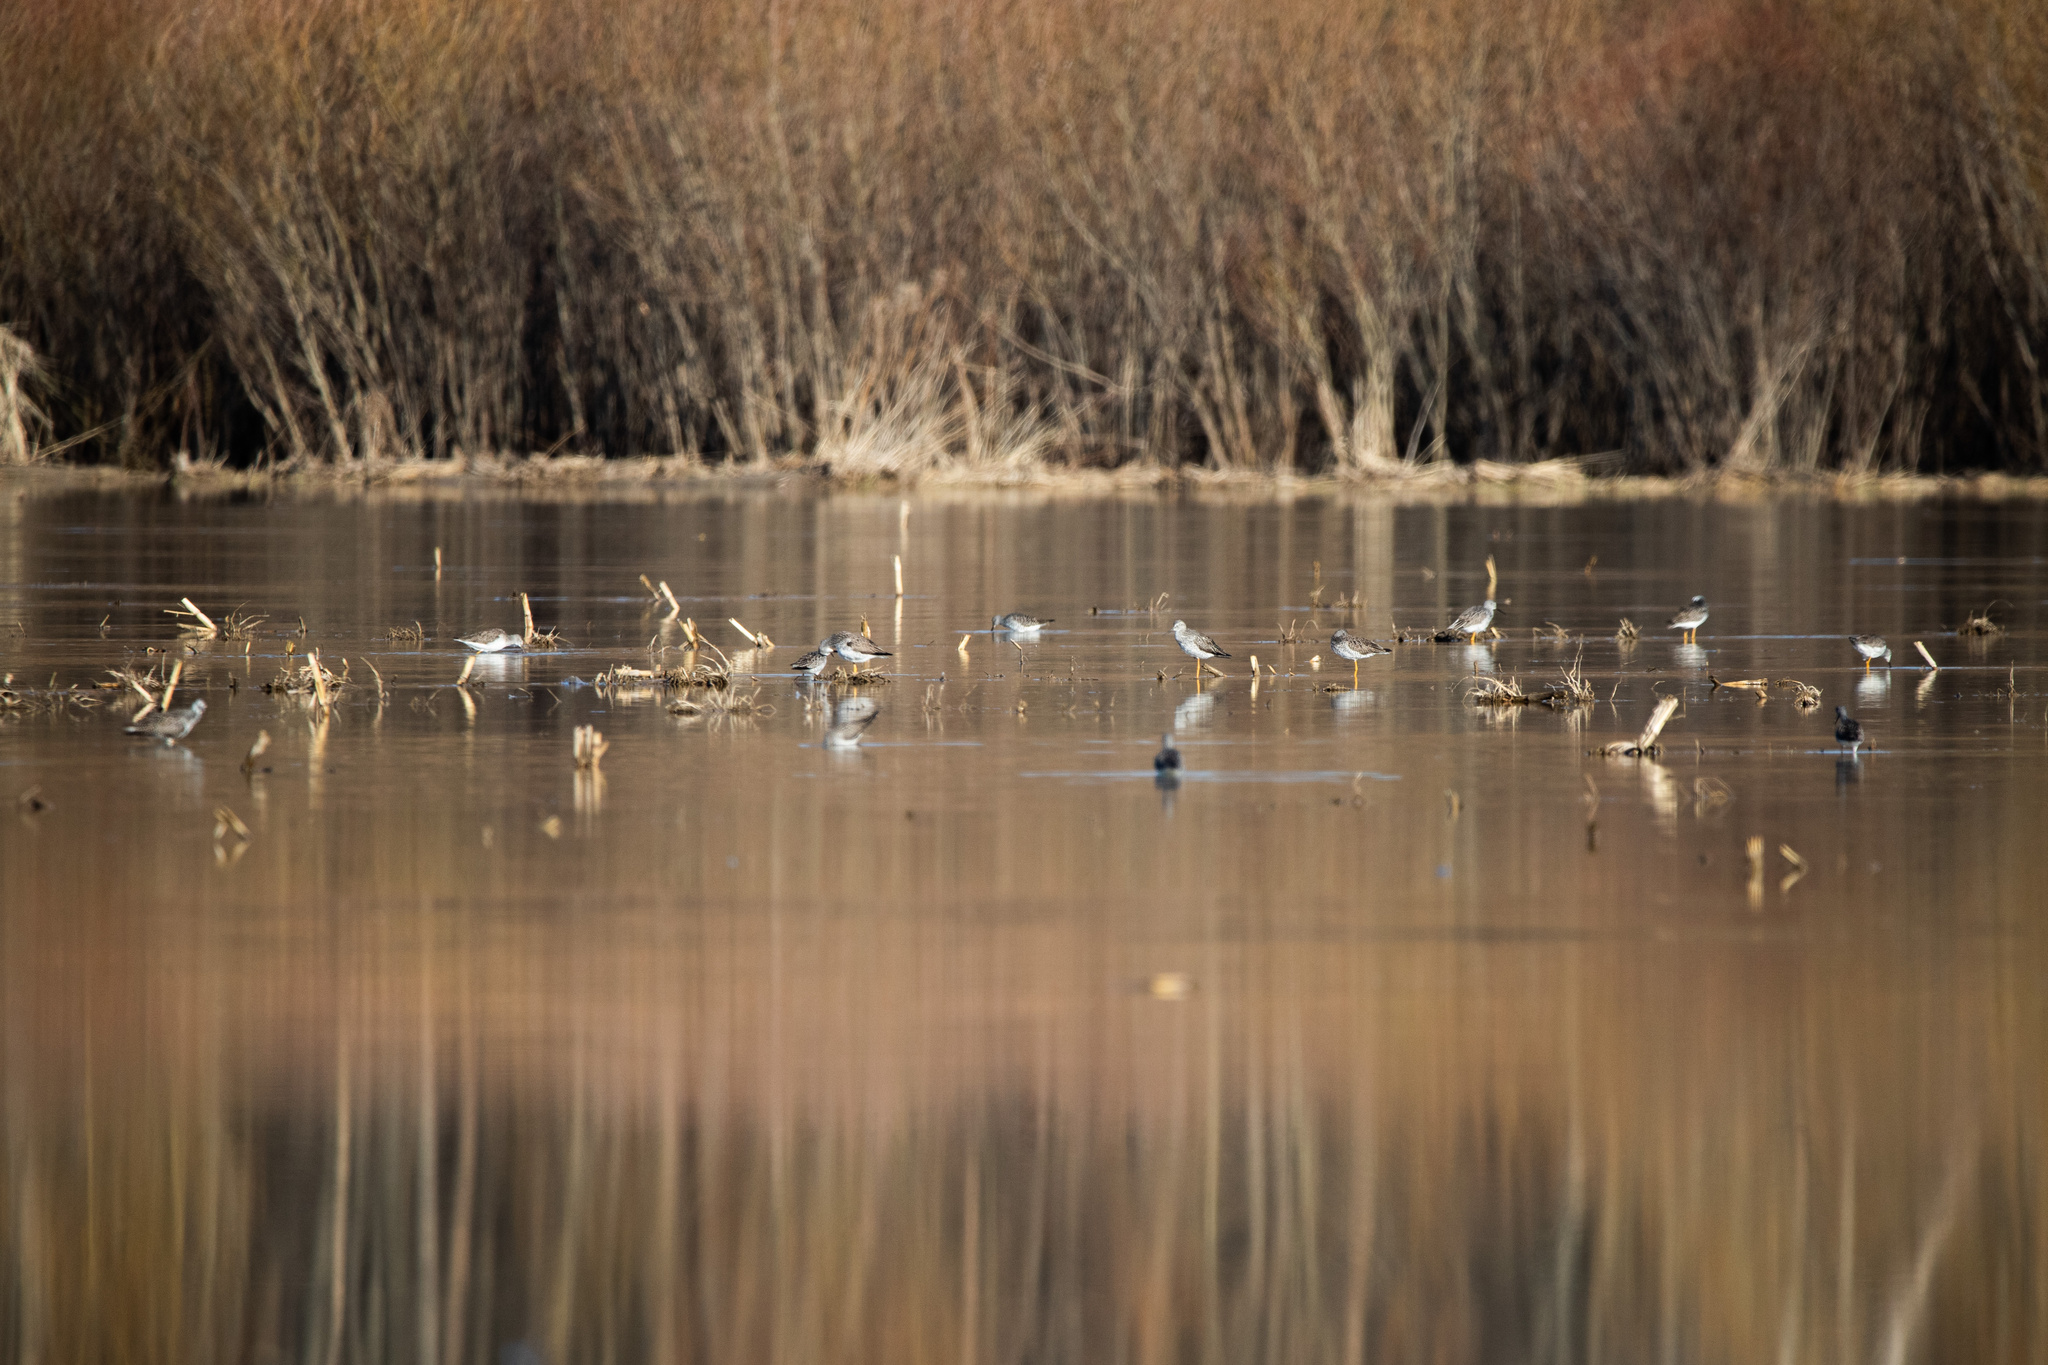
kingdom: Animalia
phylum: Chordata
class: Aves
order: Charadriiformes
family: Scolopacidae
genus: Tringa
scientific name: Tringa melanoleuca
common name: Greater yellowlegs
